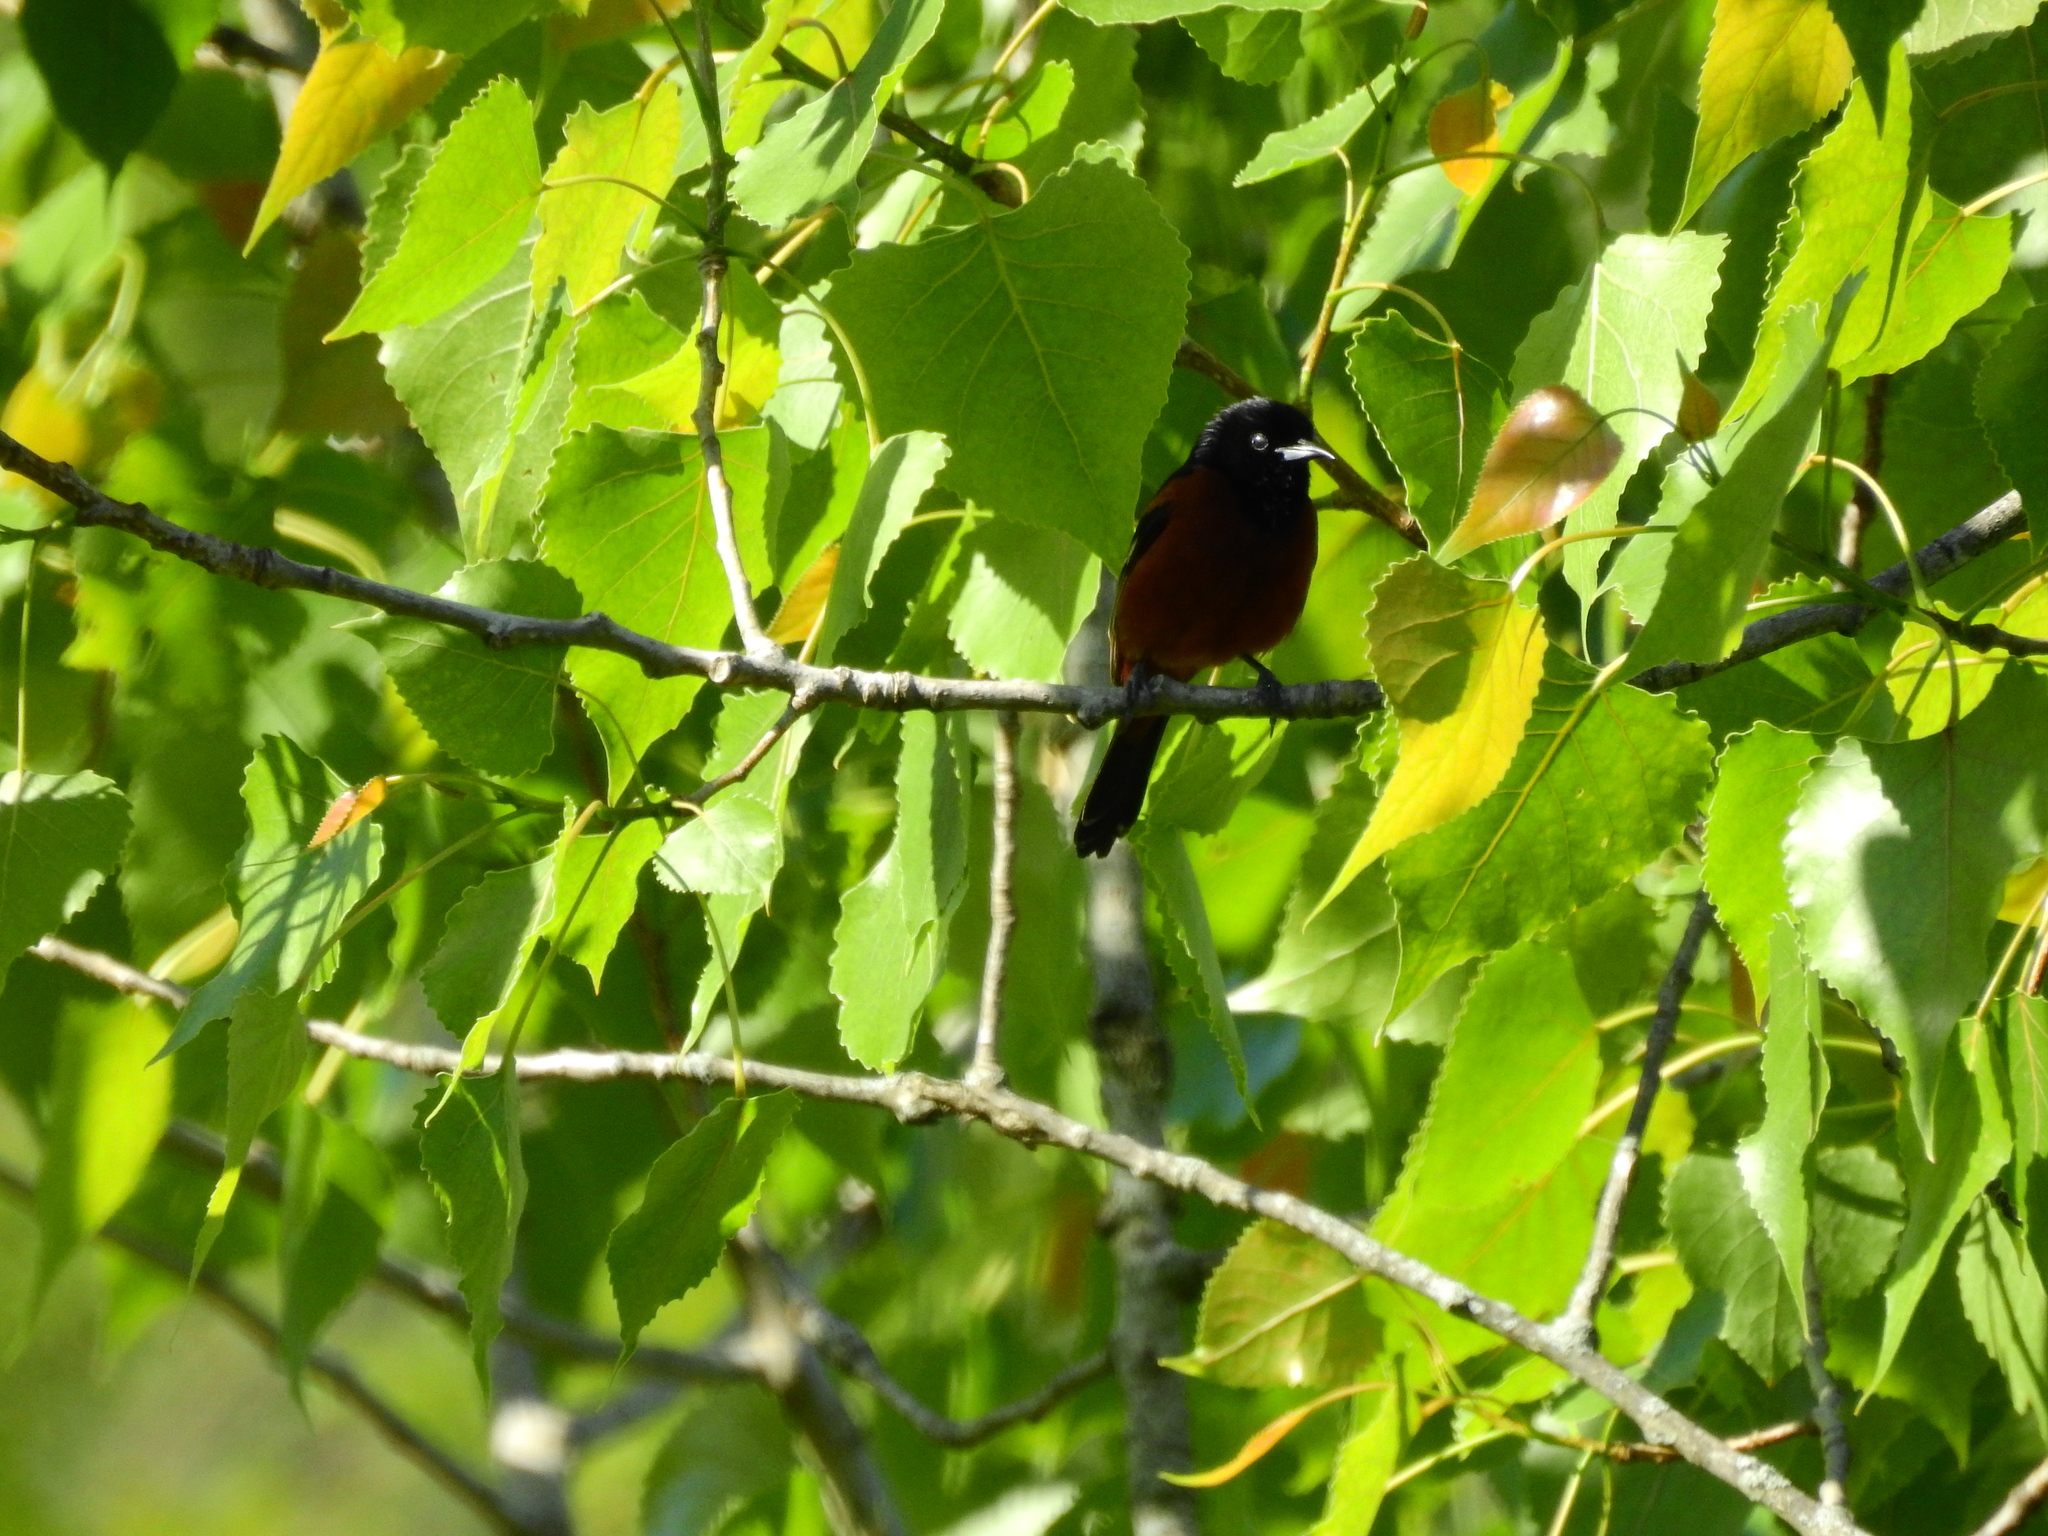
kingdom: Animalia
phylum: Chordata
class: Aves
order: Passeriformes
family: Icteridae
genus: Icterus
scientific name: Icterus spurius
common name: Orchard oriole
